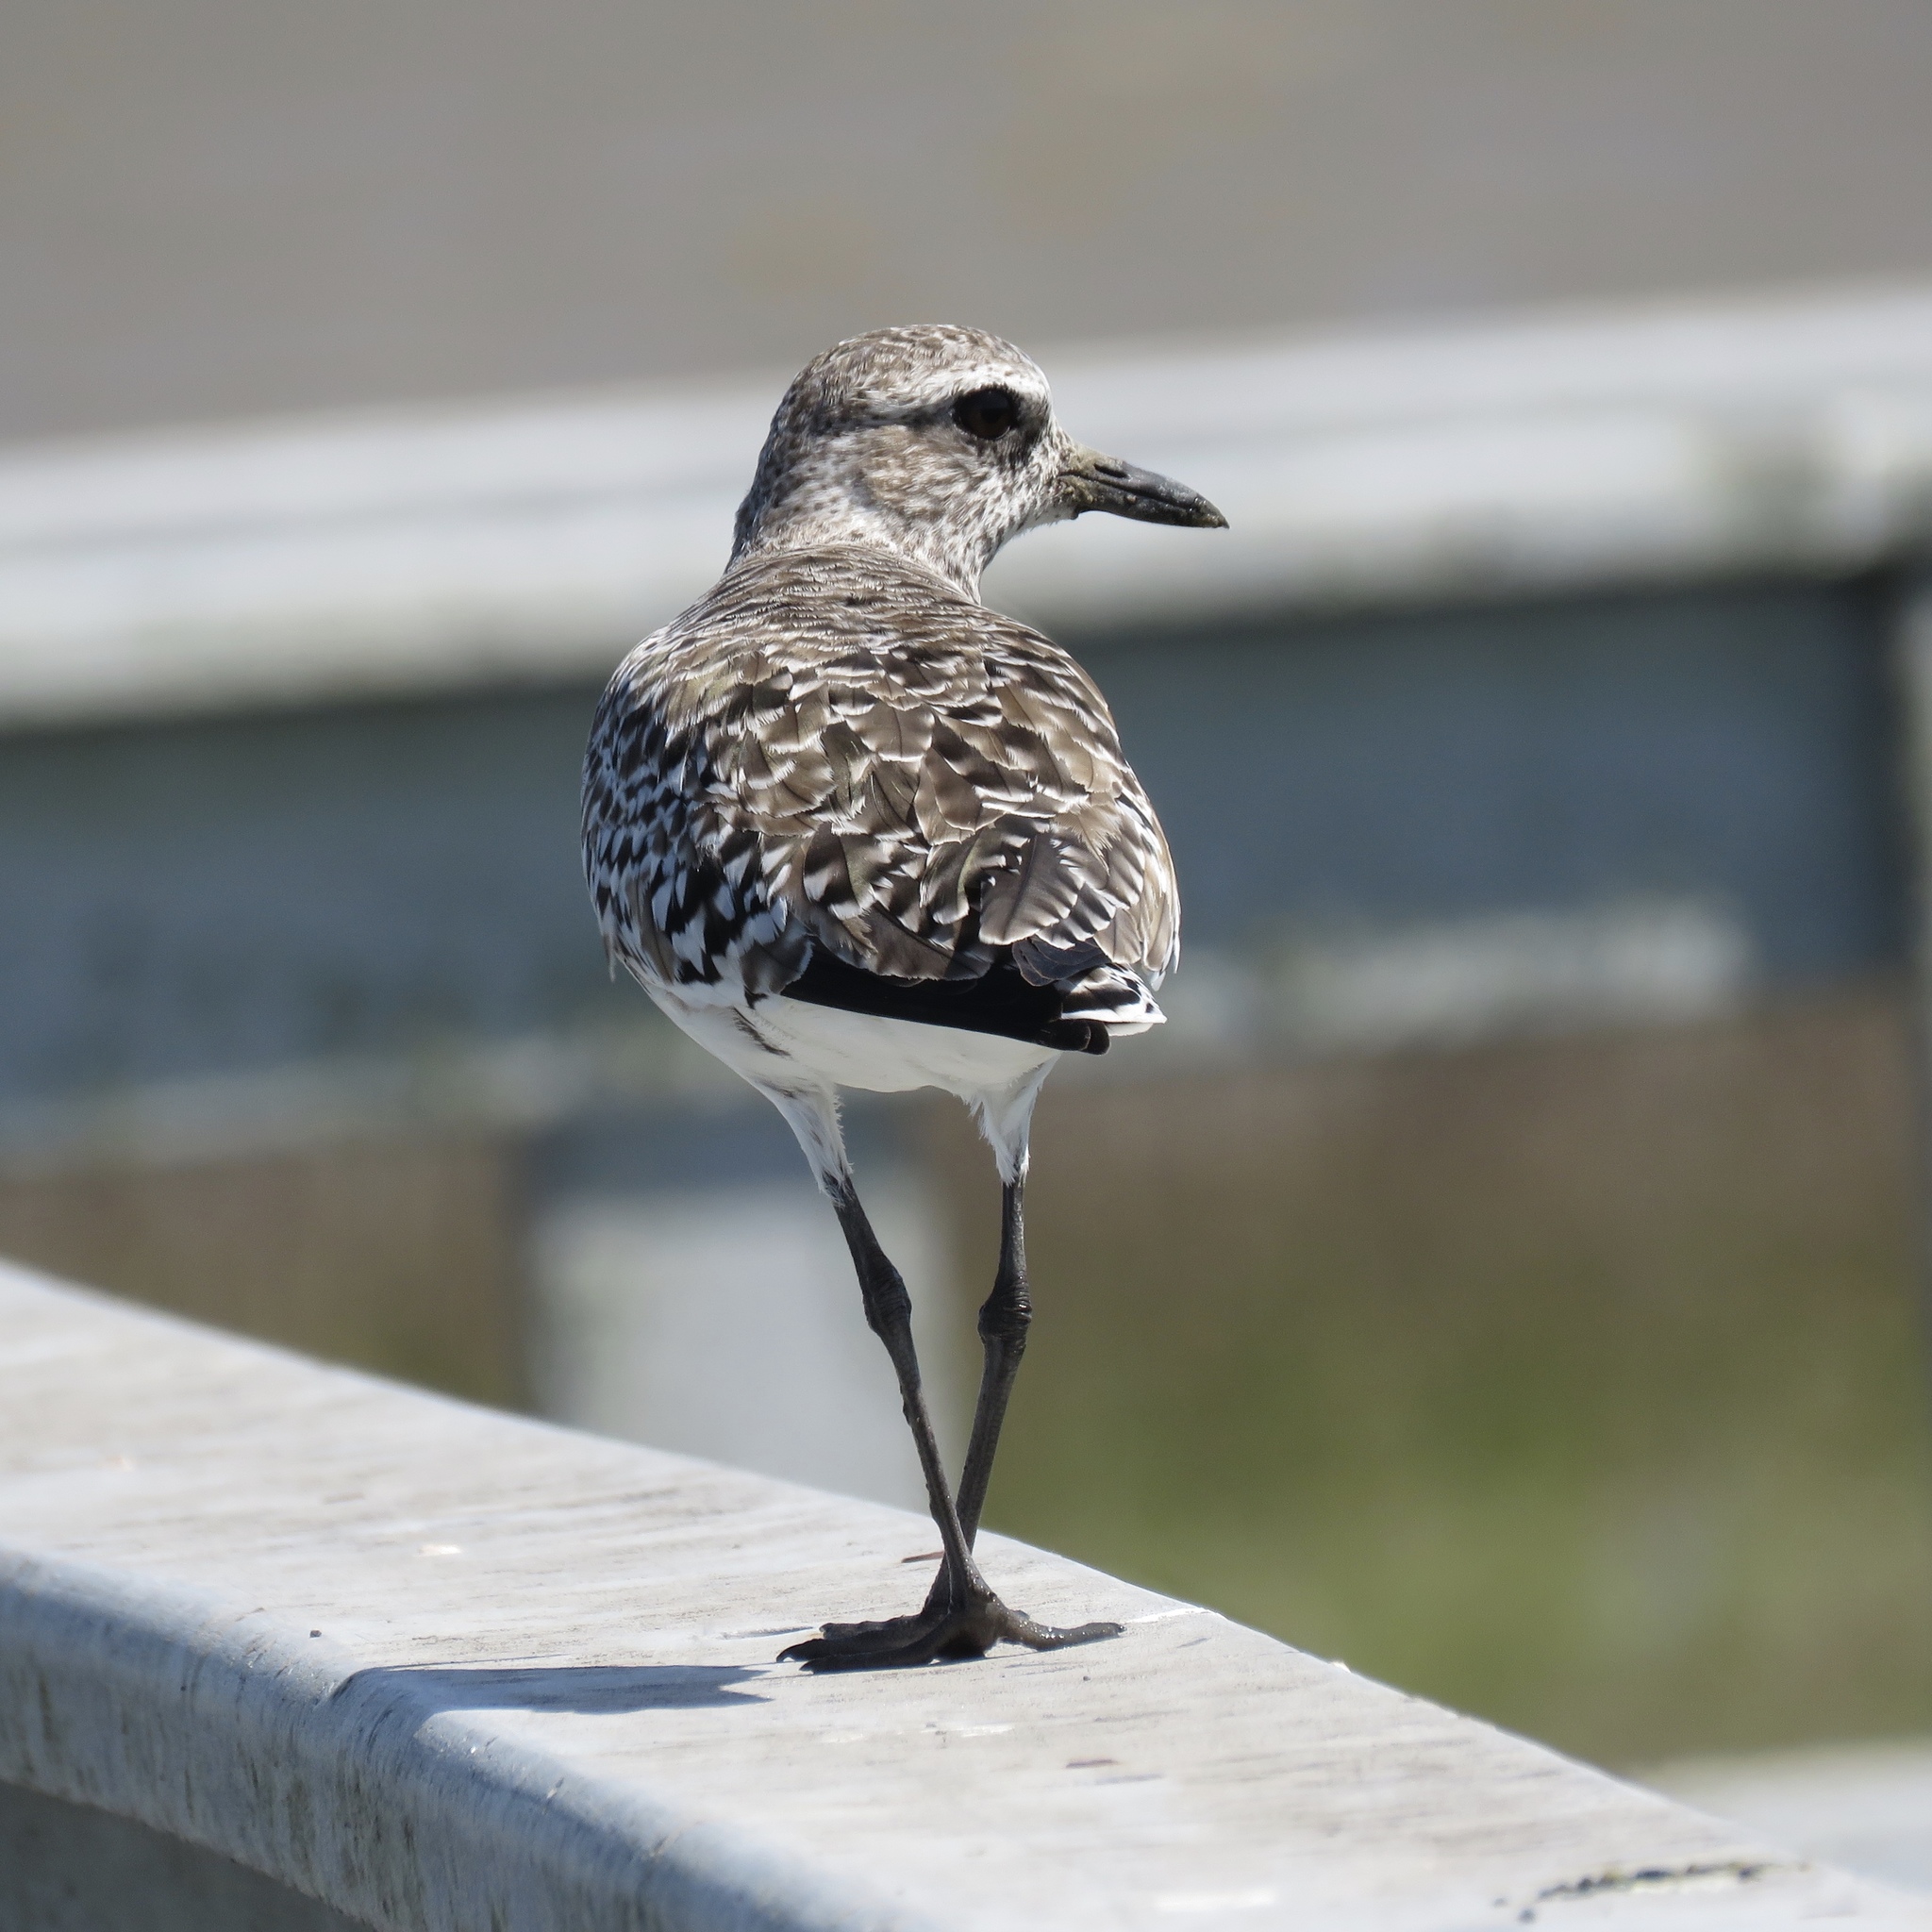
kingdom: Animalia
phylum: Chordata
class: Aves
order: Charadriiformes
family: Charadriidae
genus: Pluvialis
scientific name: Pluvialis squatarola
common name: Grey plover
